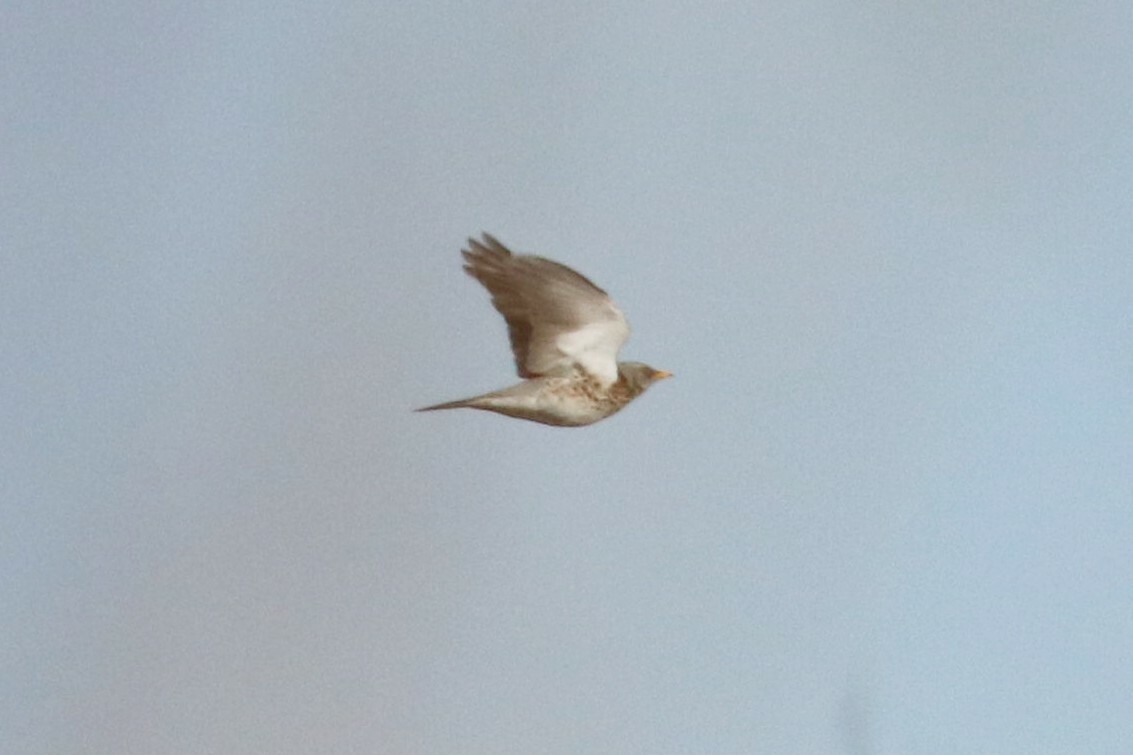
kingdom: Animalia
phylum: Chordata
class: Aves
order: Passeriformes
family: Turdidae
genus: Turdus
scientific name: Turdus pilaris
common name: Fieldfare
